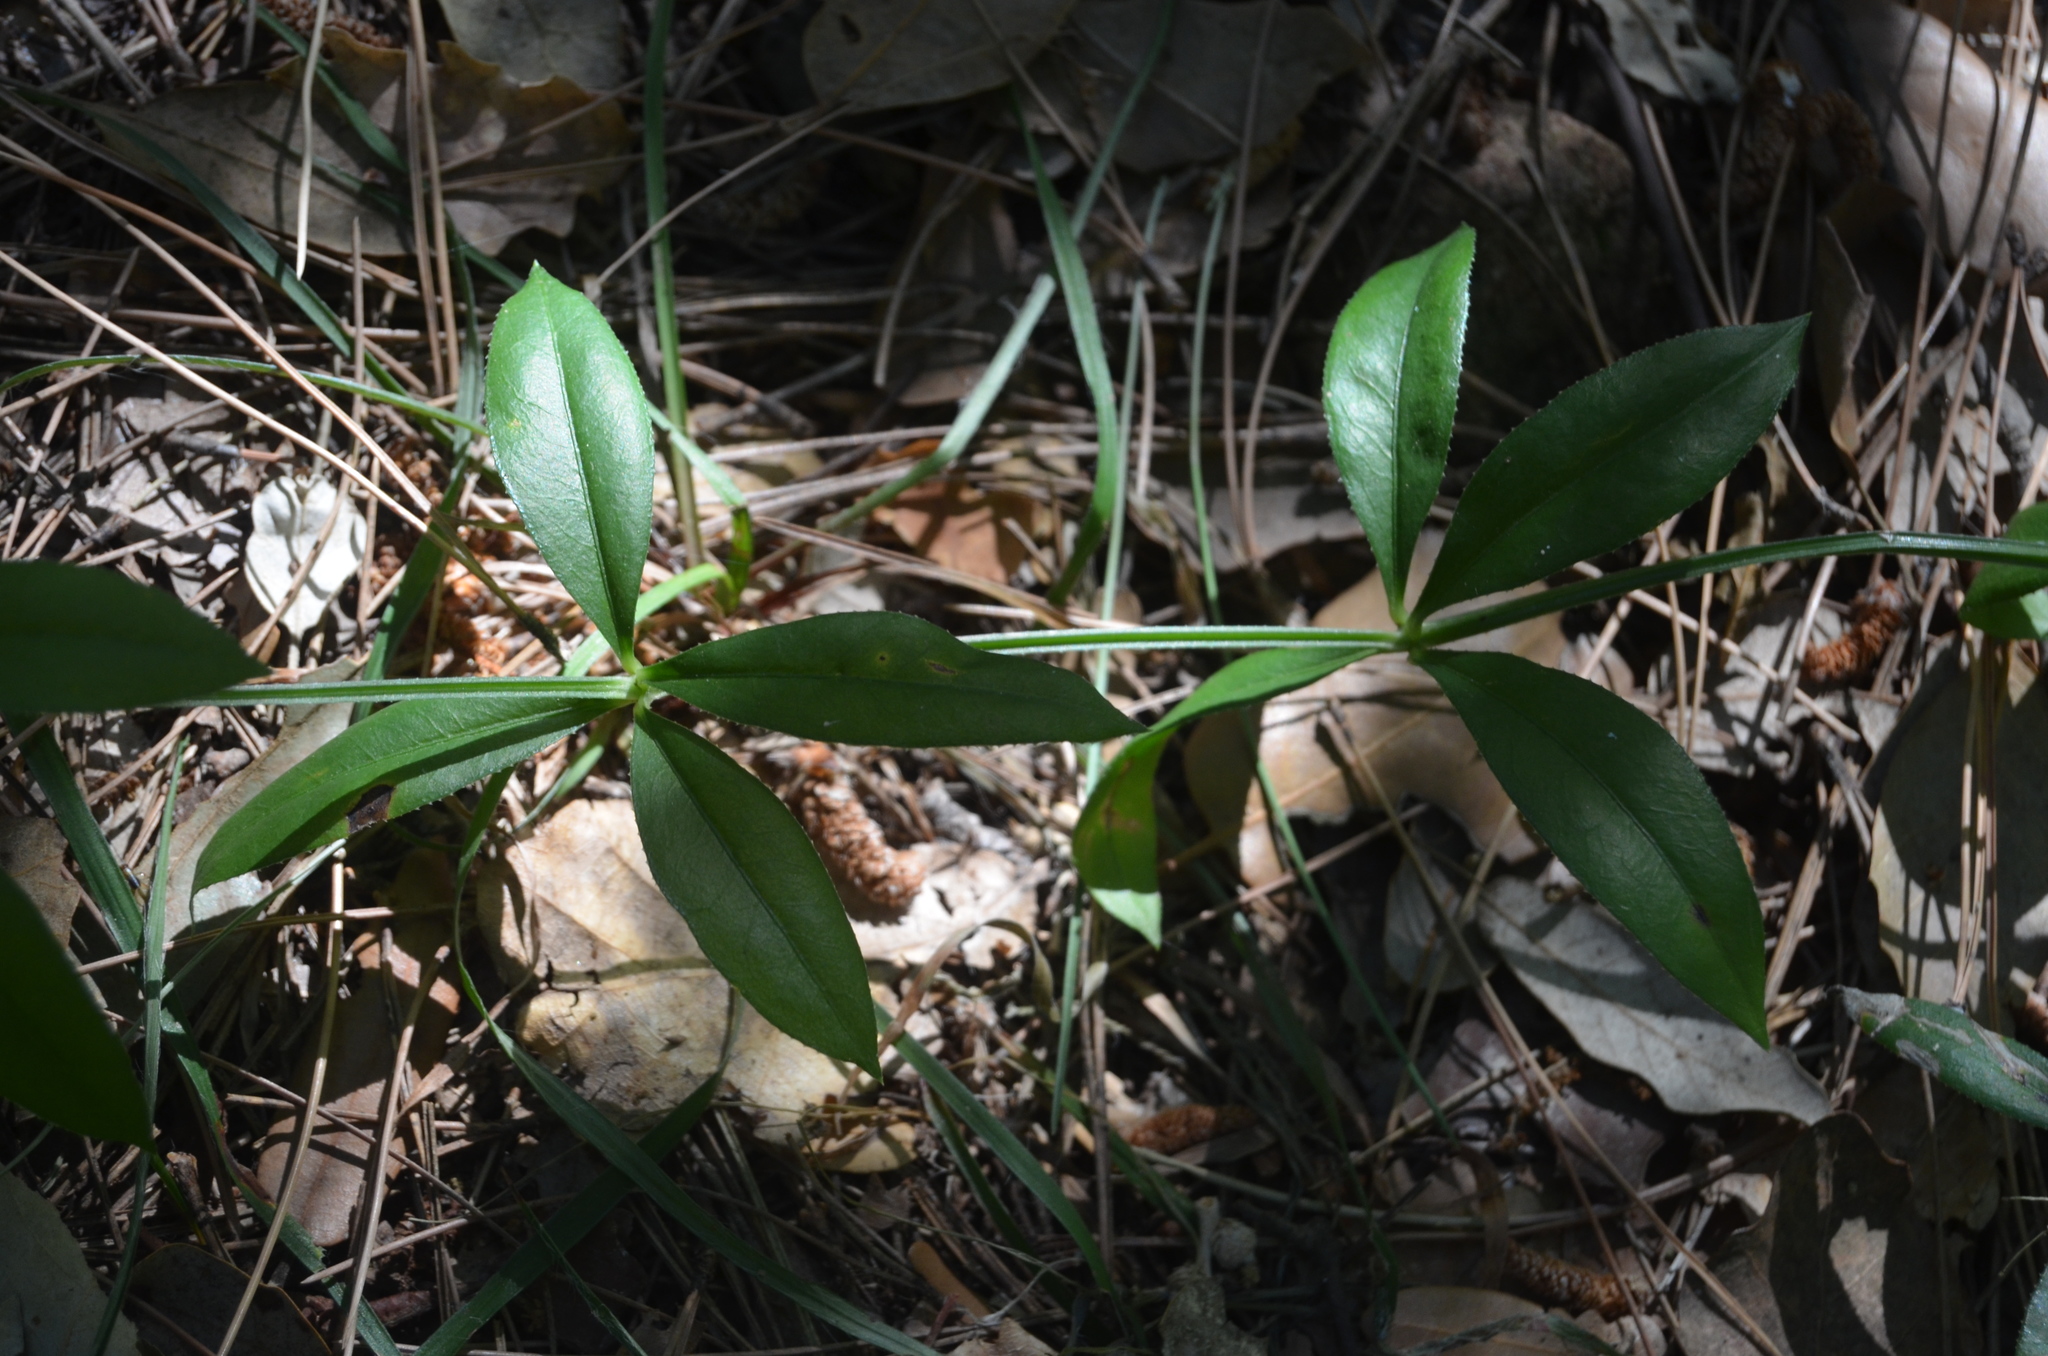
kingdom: Plantae
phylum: Tracheophyta
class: Magnoliopsida
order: Gentianales
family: Rubiaceae
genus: Rubia
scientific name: Rubia peregrina
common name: Wild madder
